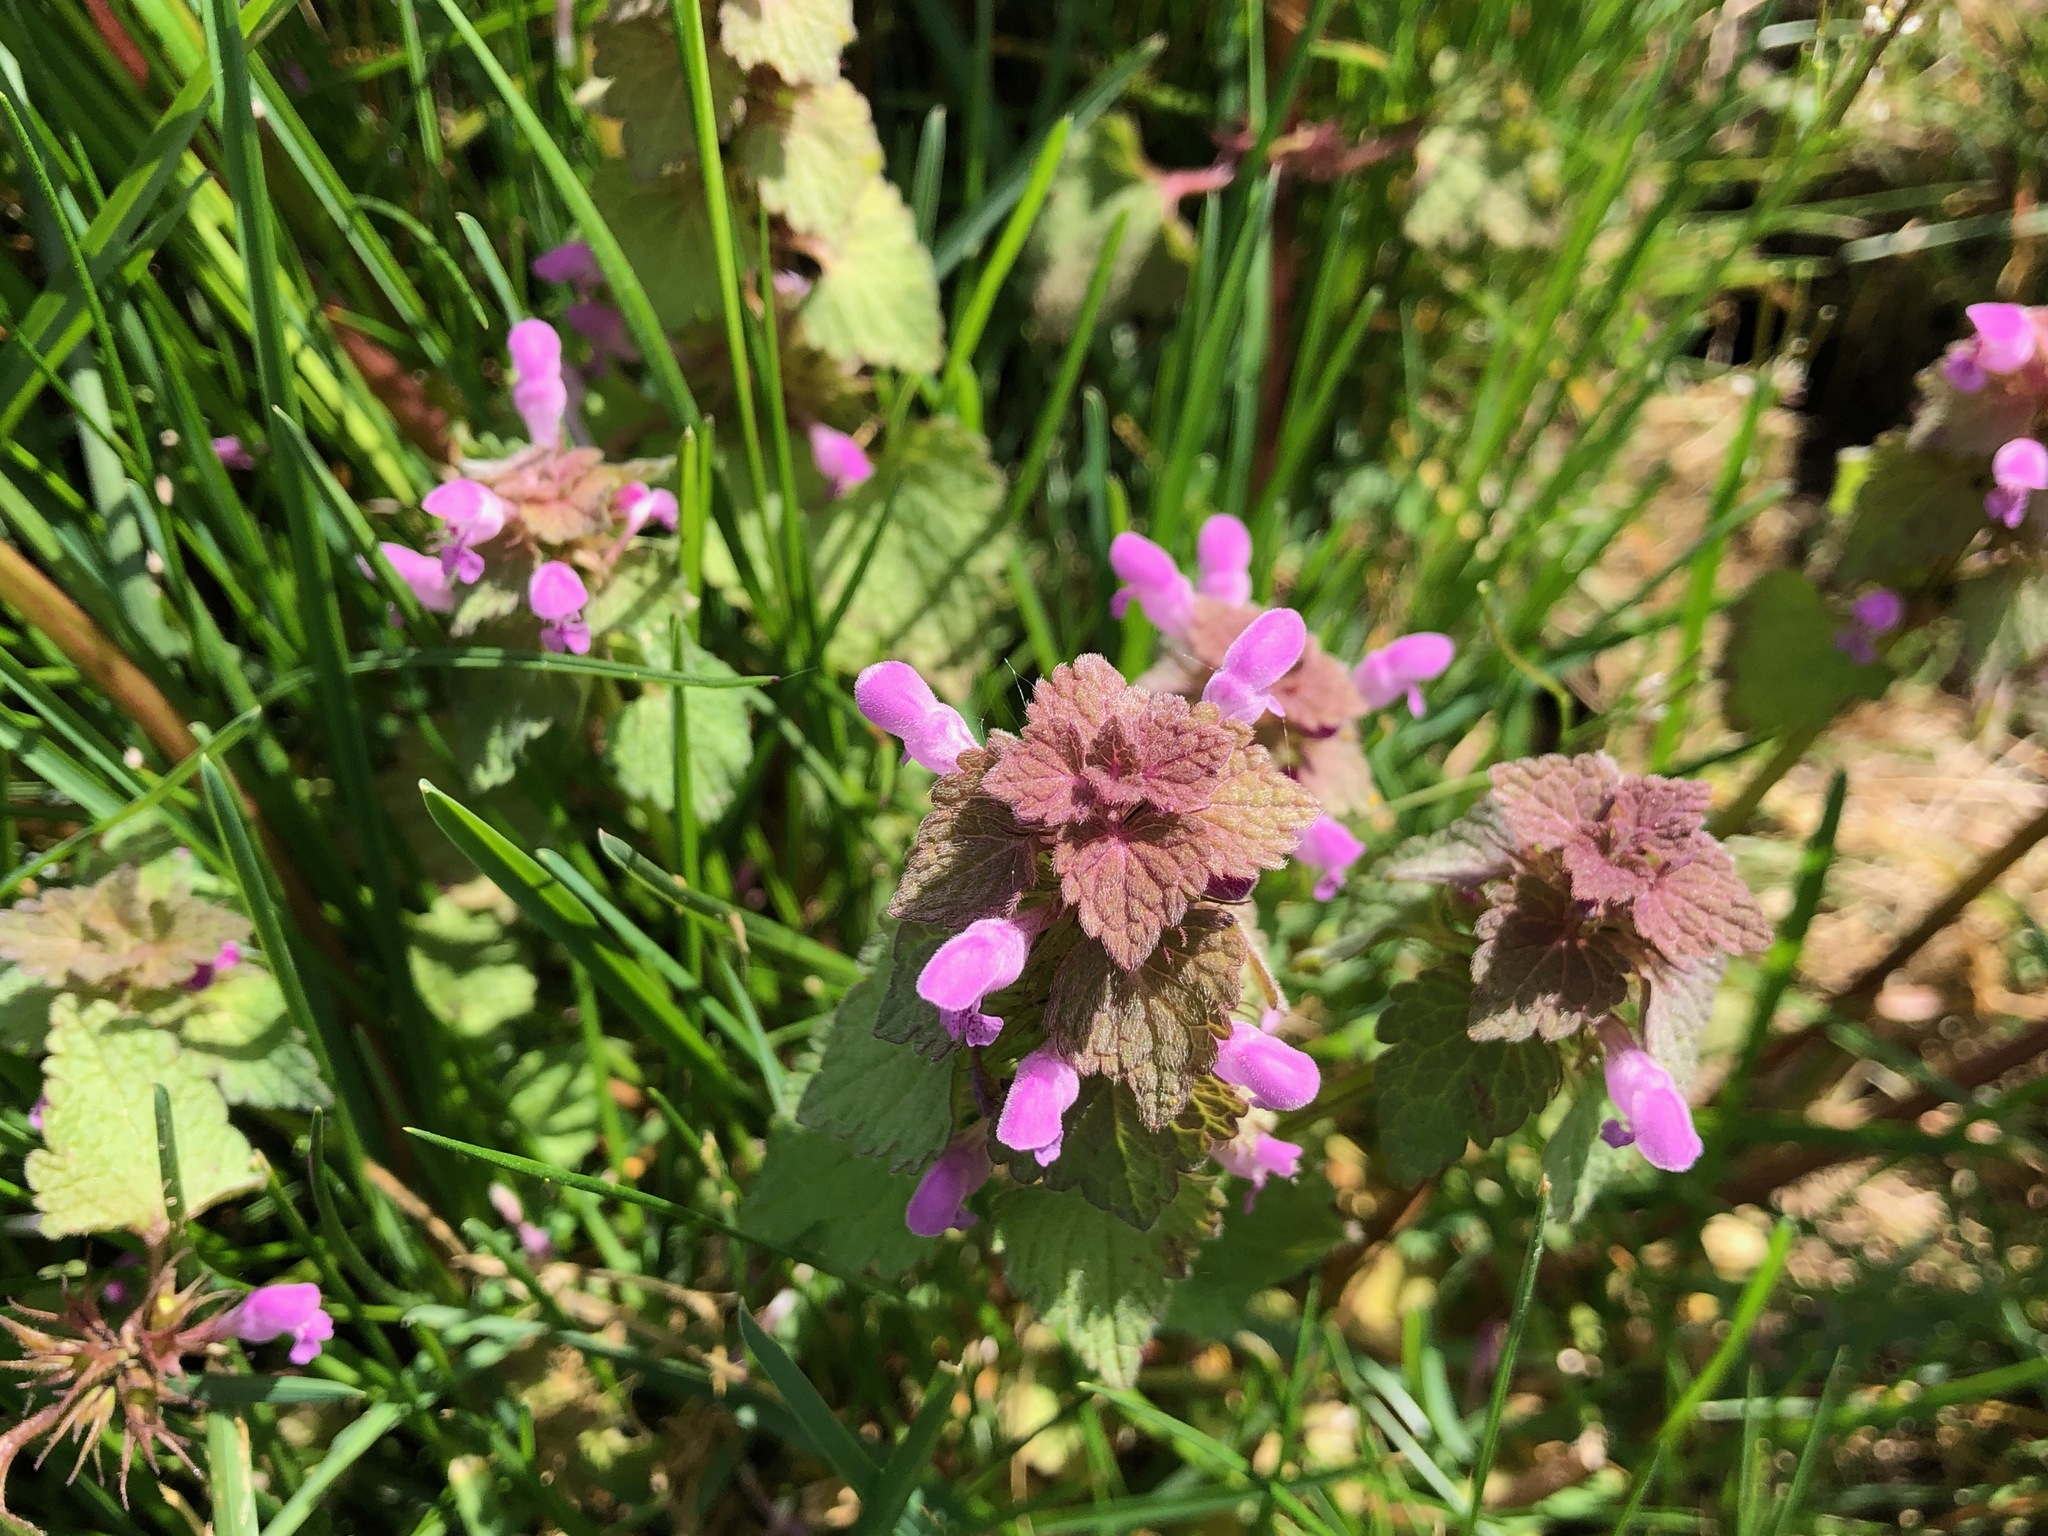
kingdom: Plantae
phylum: Tracheophyta
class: Magnoliopsida
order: Lamiales
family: Lamiaceae
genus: Lamium
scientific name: Lamium purpureum
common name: Red dead-nettle
